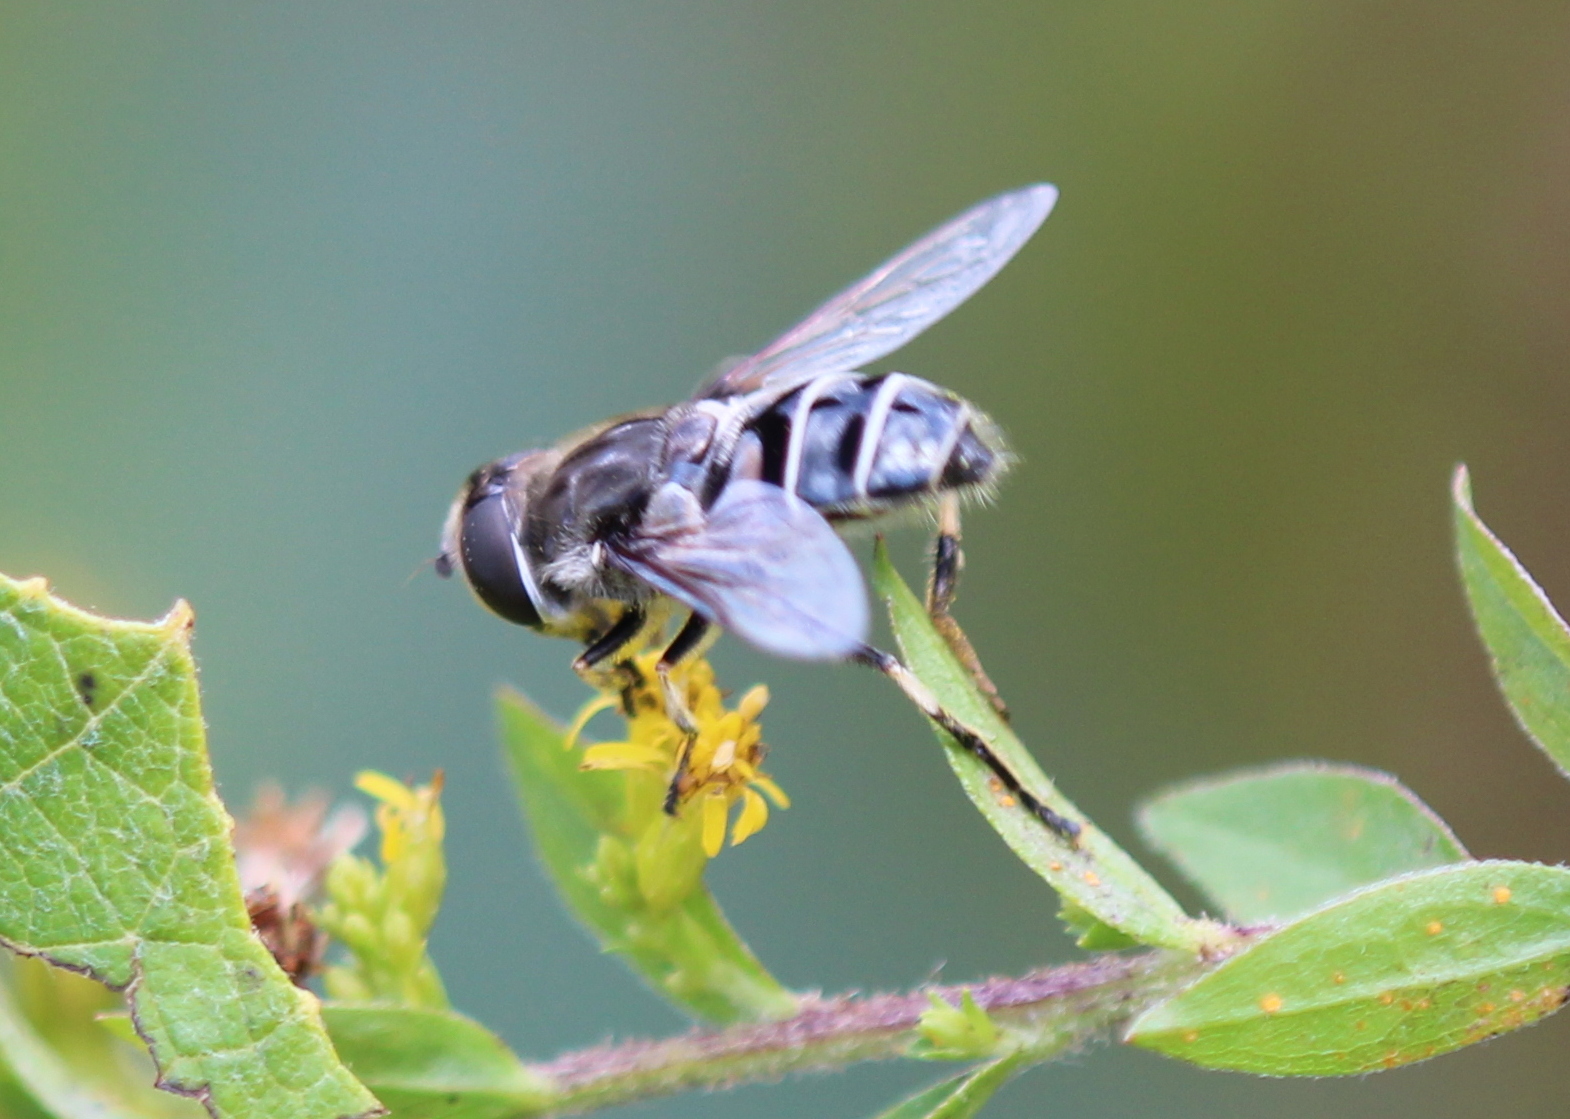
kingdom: Animalia
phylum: Arthropoda
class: Insecta
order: Diptera
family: Syrphidae
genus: Eristalis
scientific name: Eristalis dimidiata
